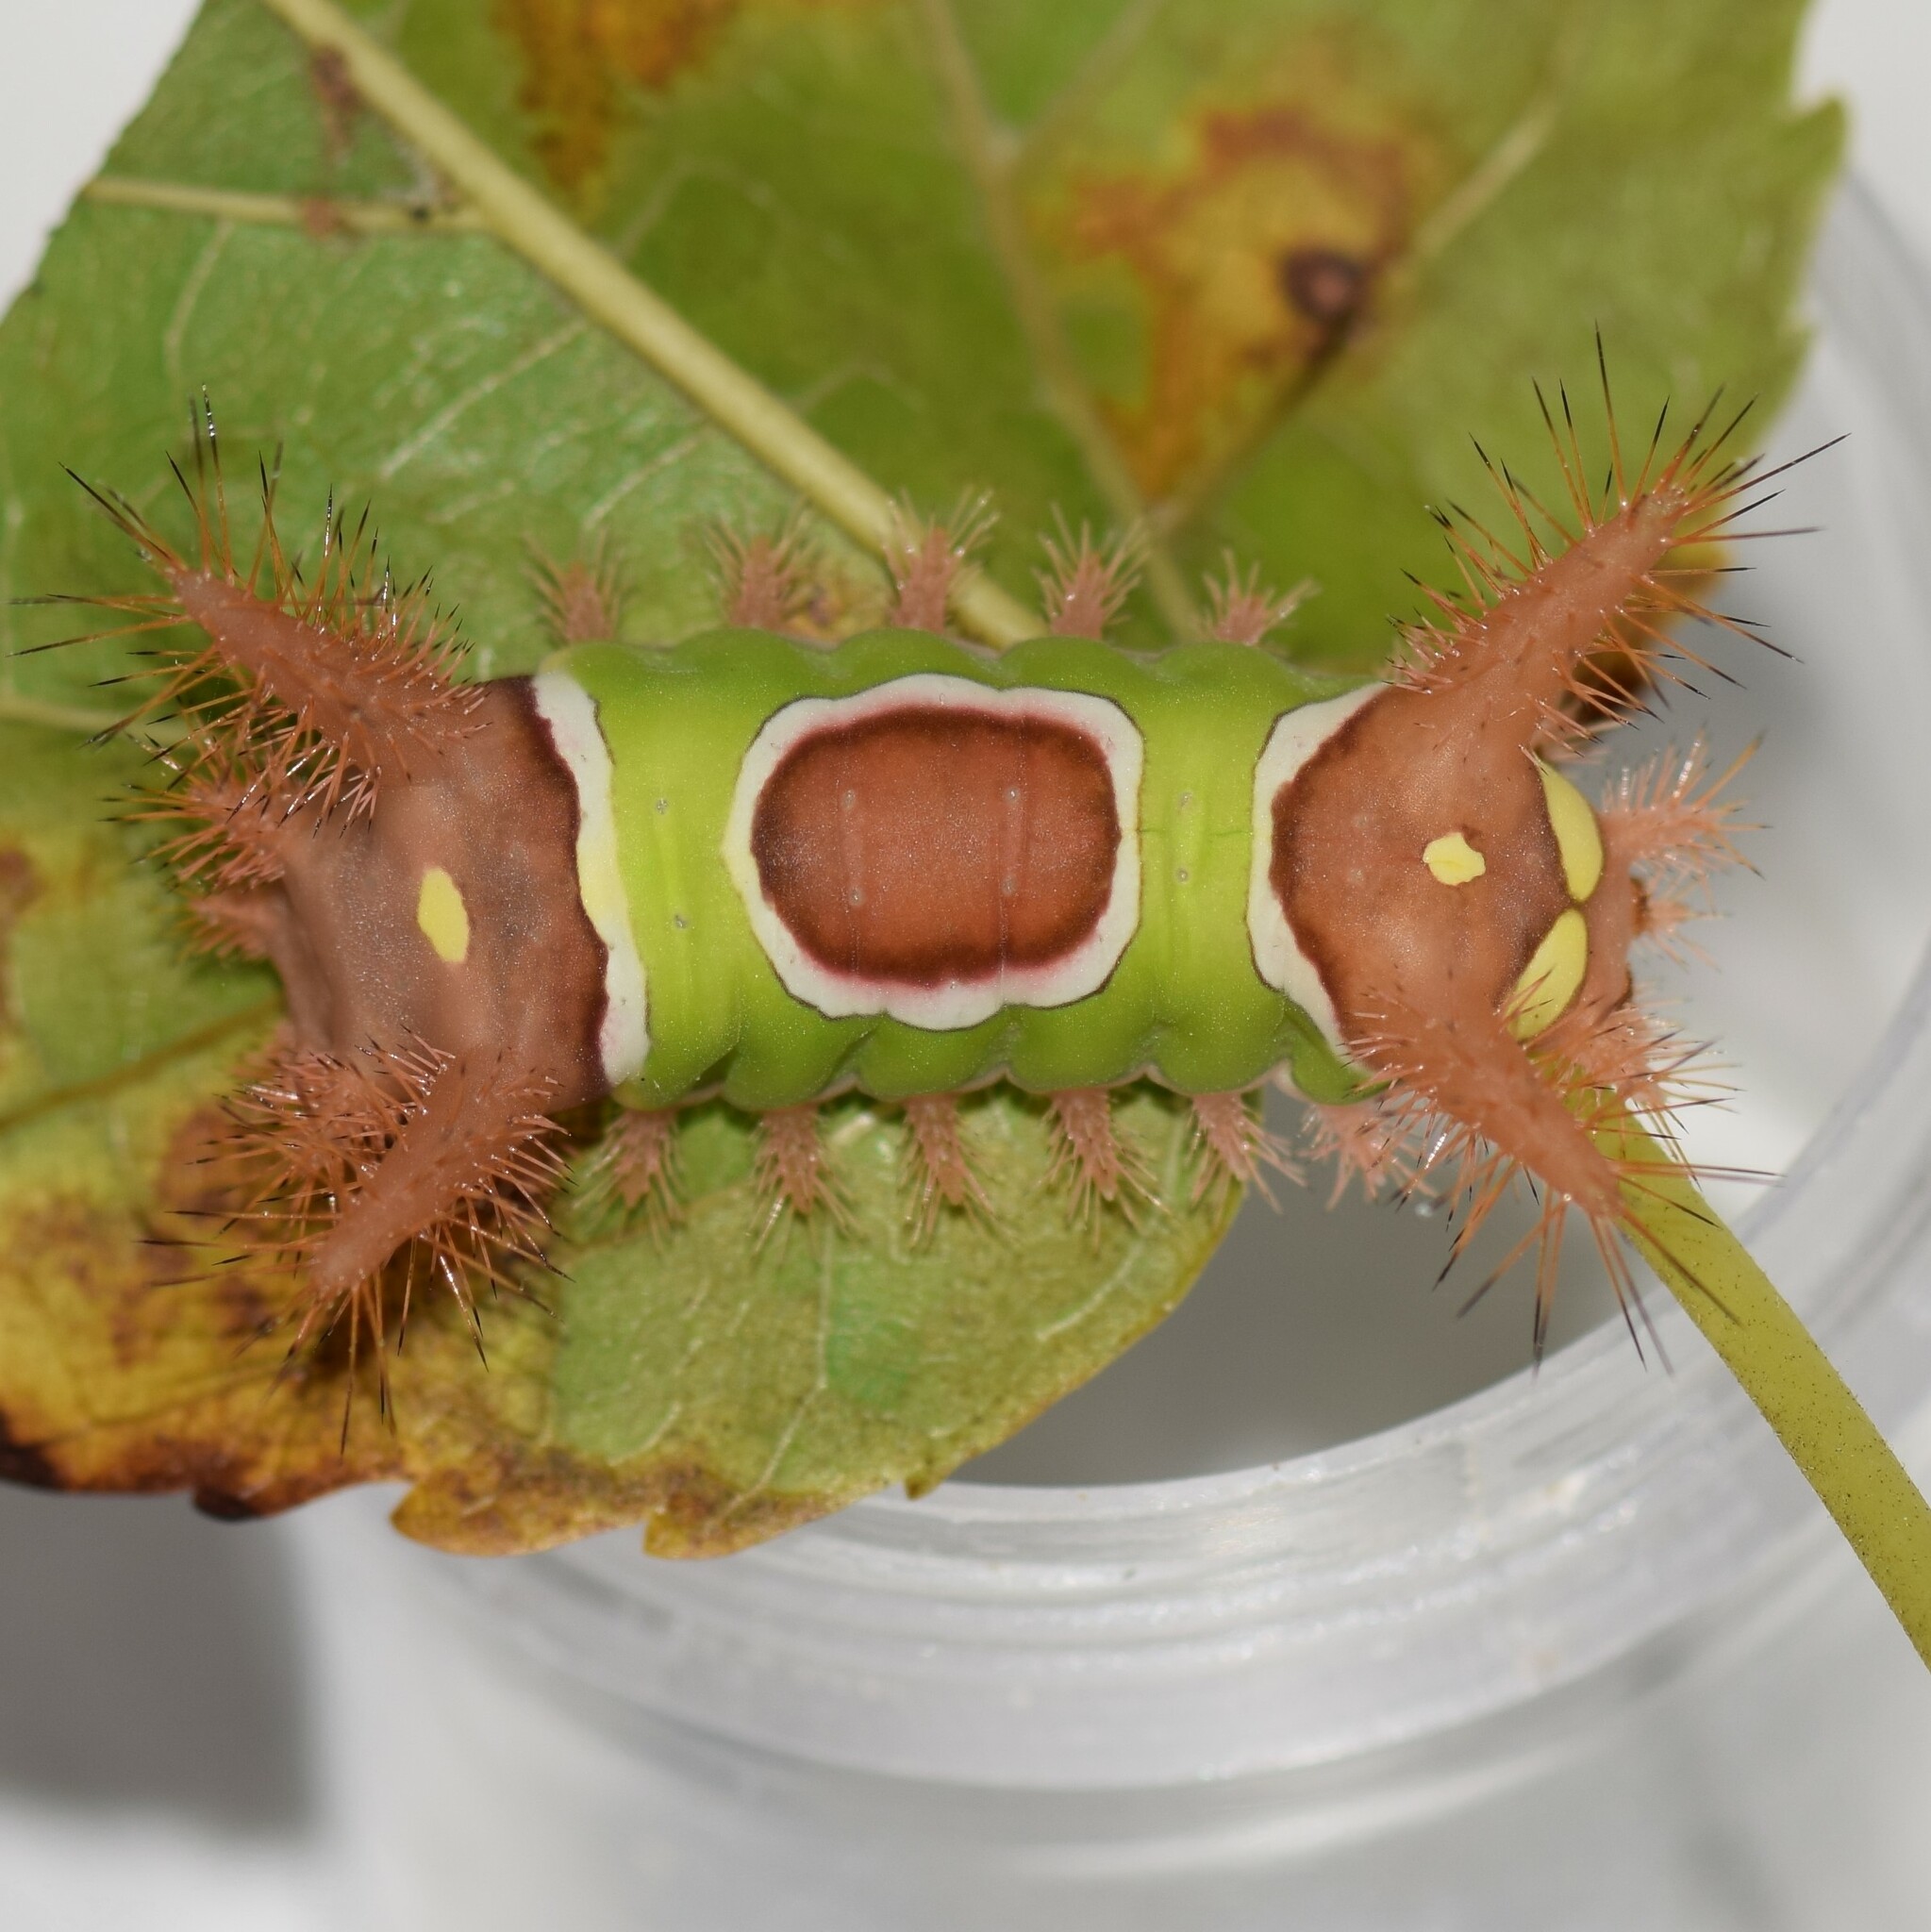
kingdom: Animalia
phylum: Arthropoda
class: Insecta
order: Lepidoptera
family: Limacodidae
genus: Acharia
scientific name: Acharia stimulea
